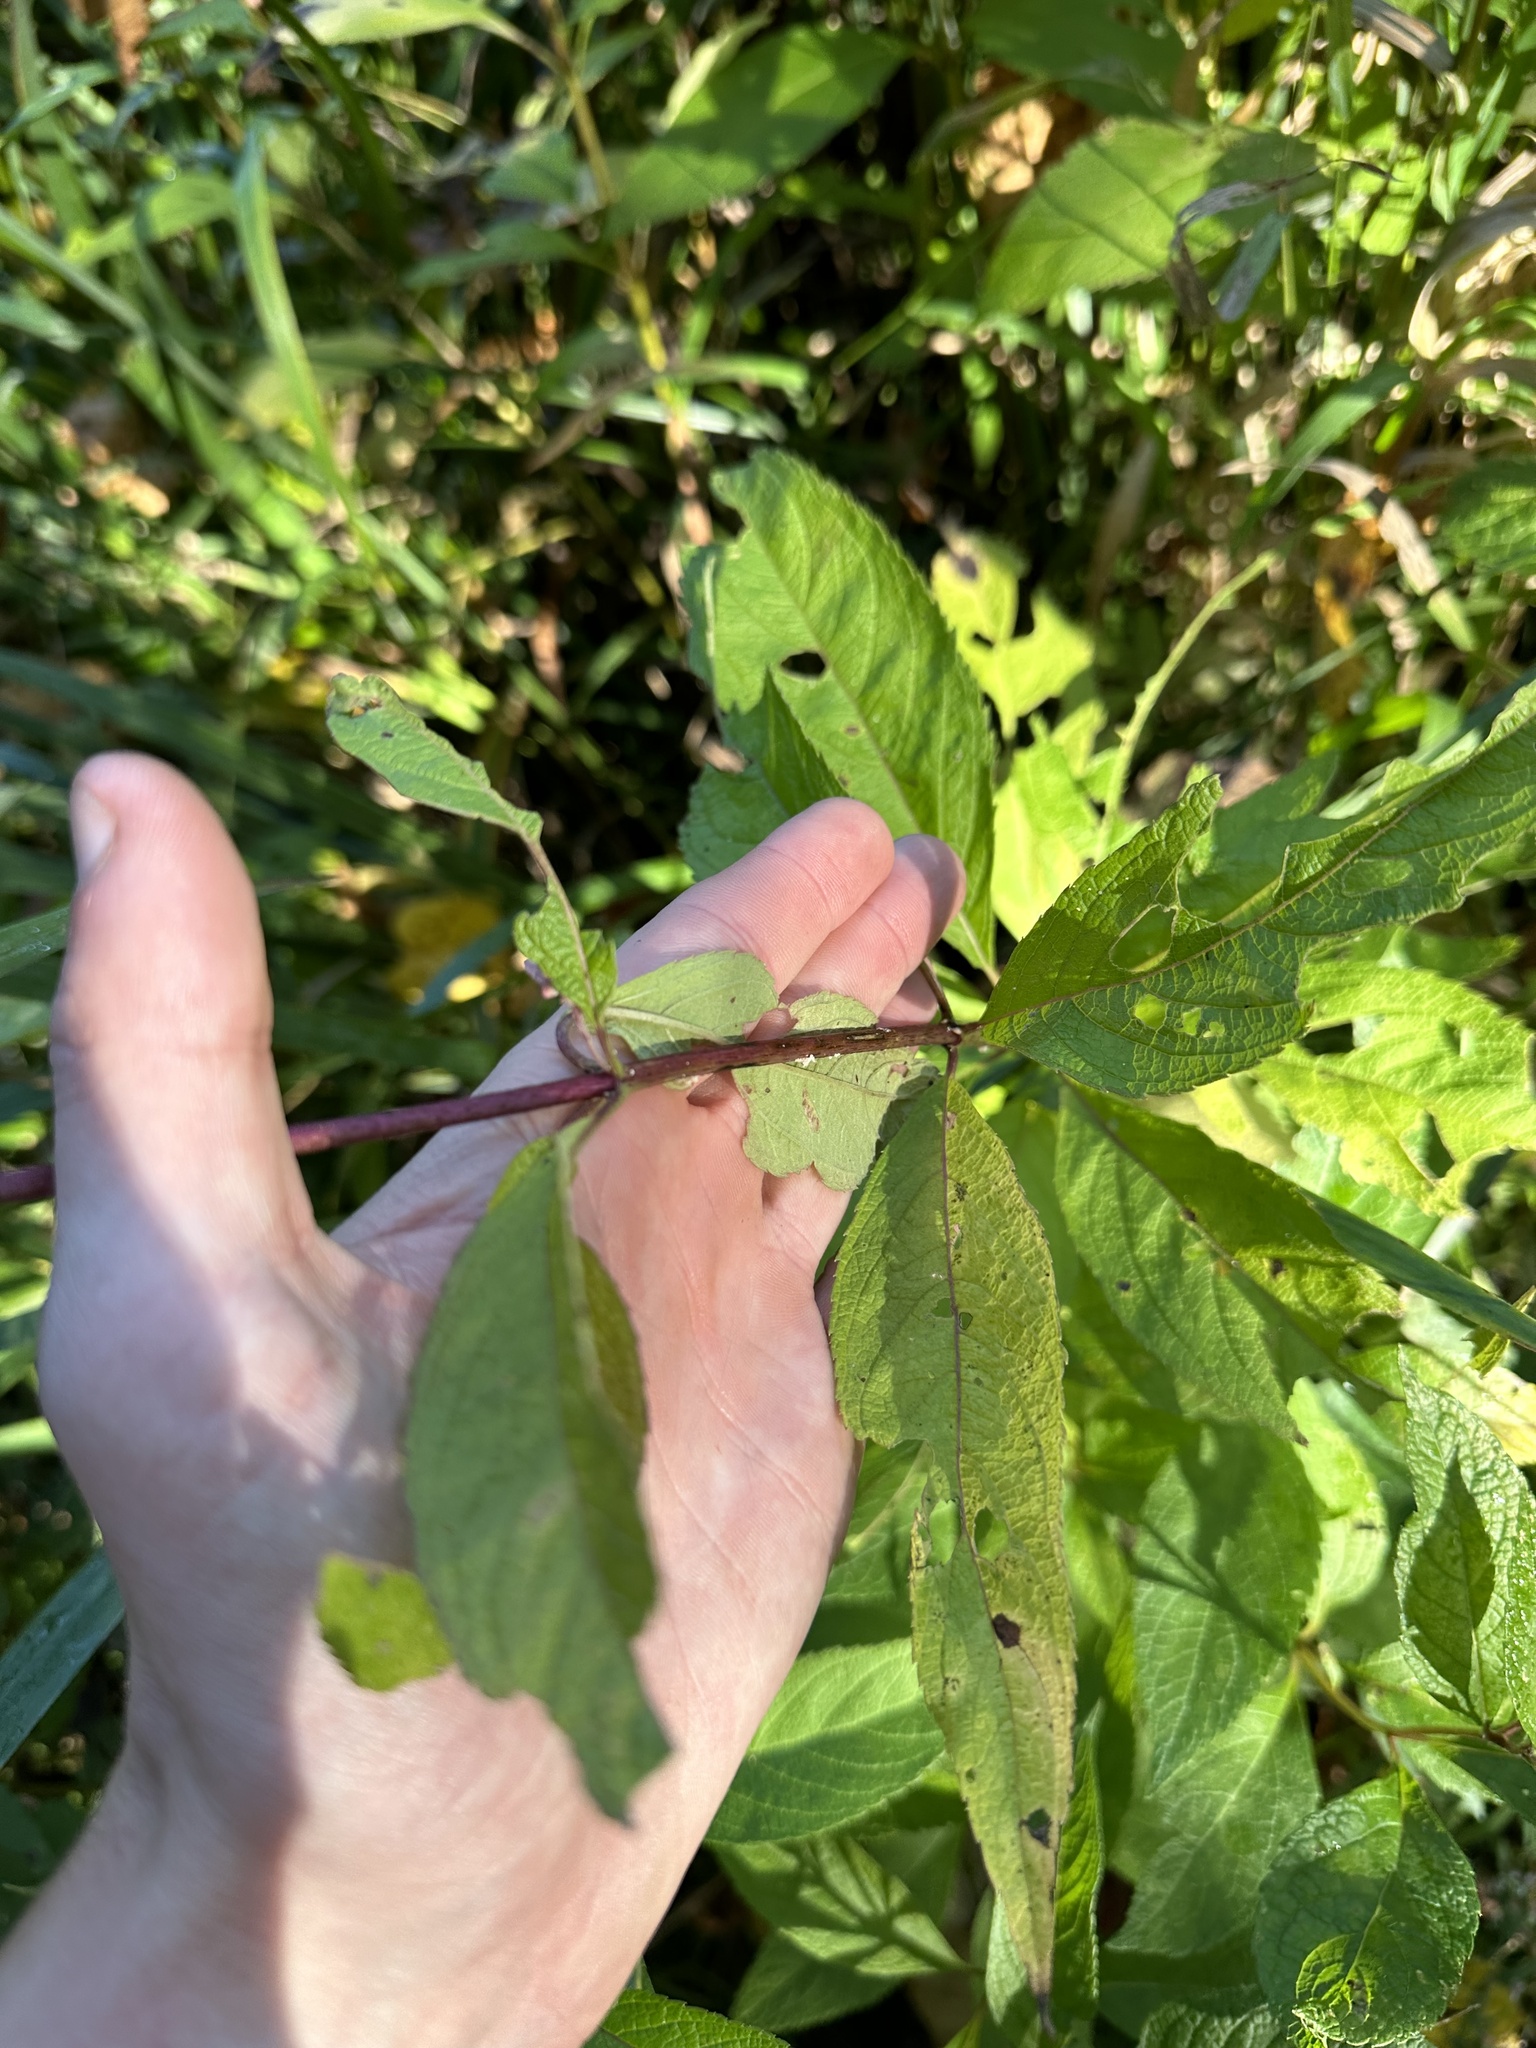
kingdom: Plantae
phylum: Tracheophyta
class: Magnoliopsida
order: Asterales
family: Asteraceae
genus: Eutrochium
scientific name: Eutrochium maculatum
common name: Spotted joe pye weed
